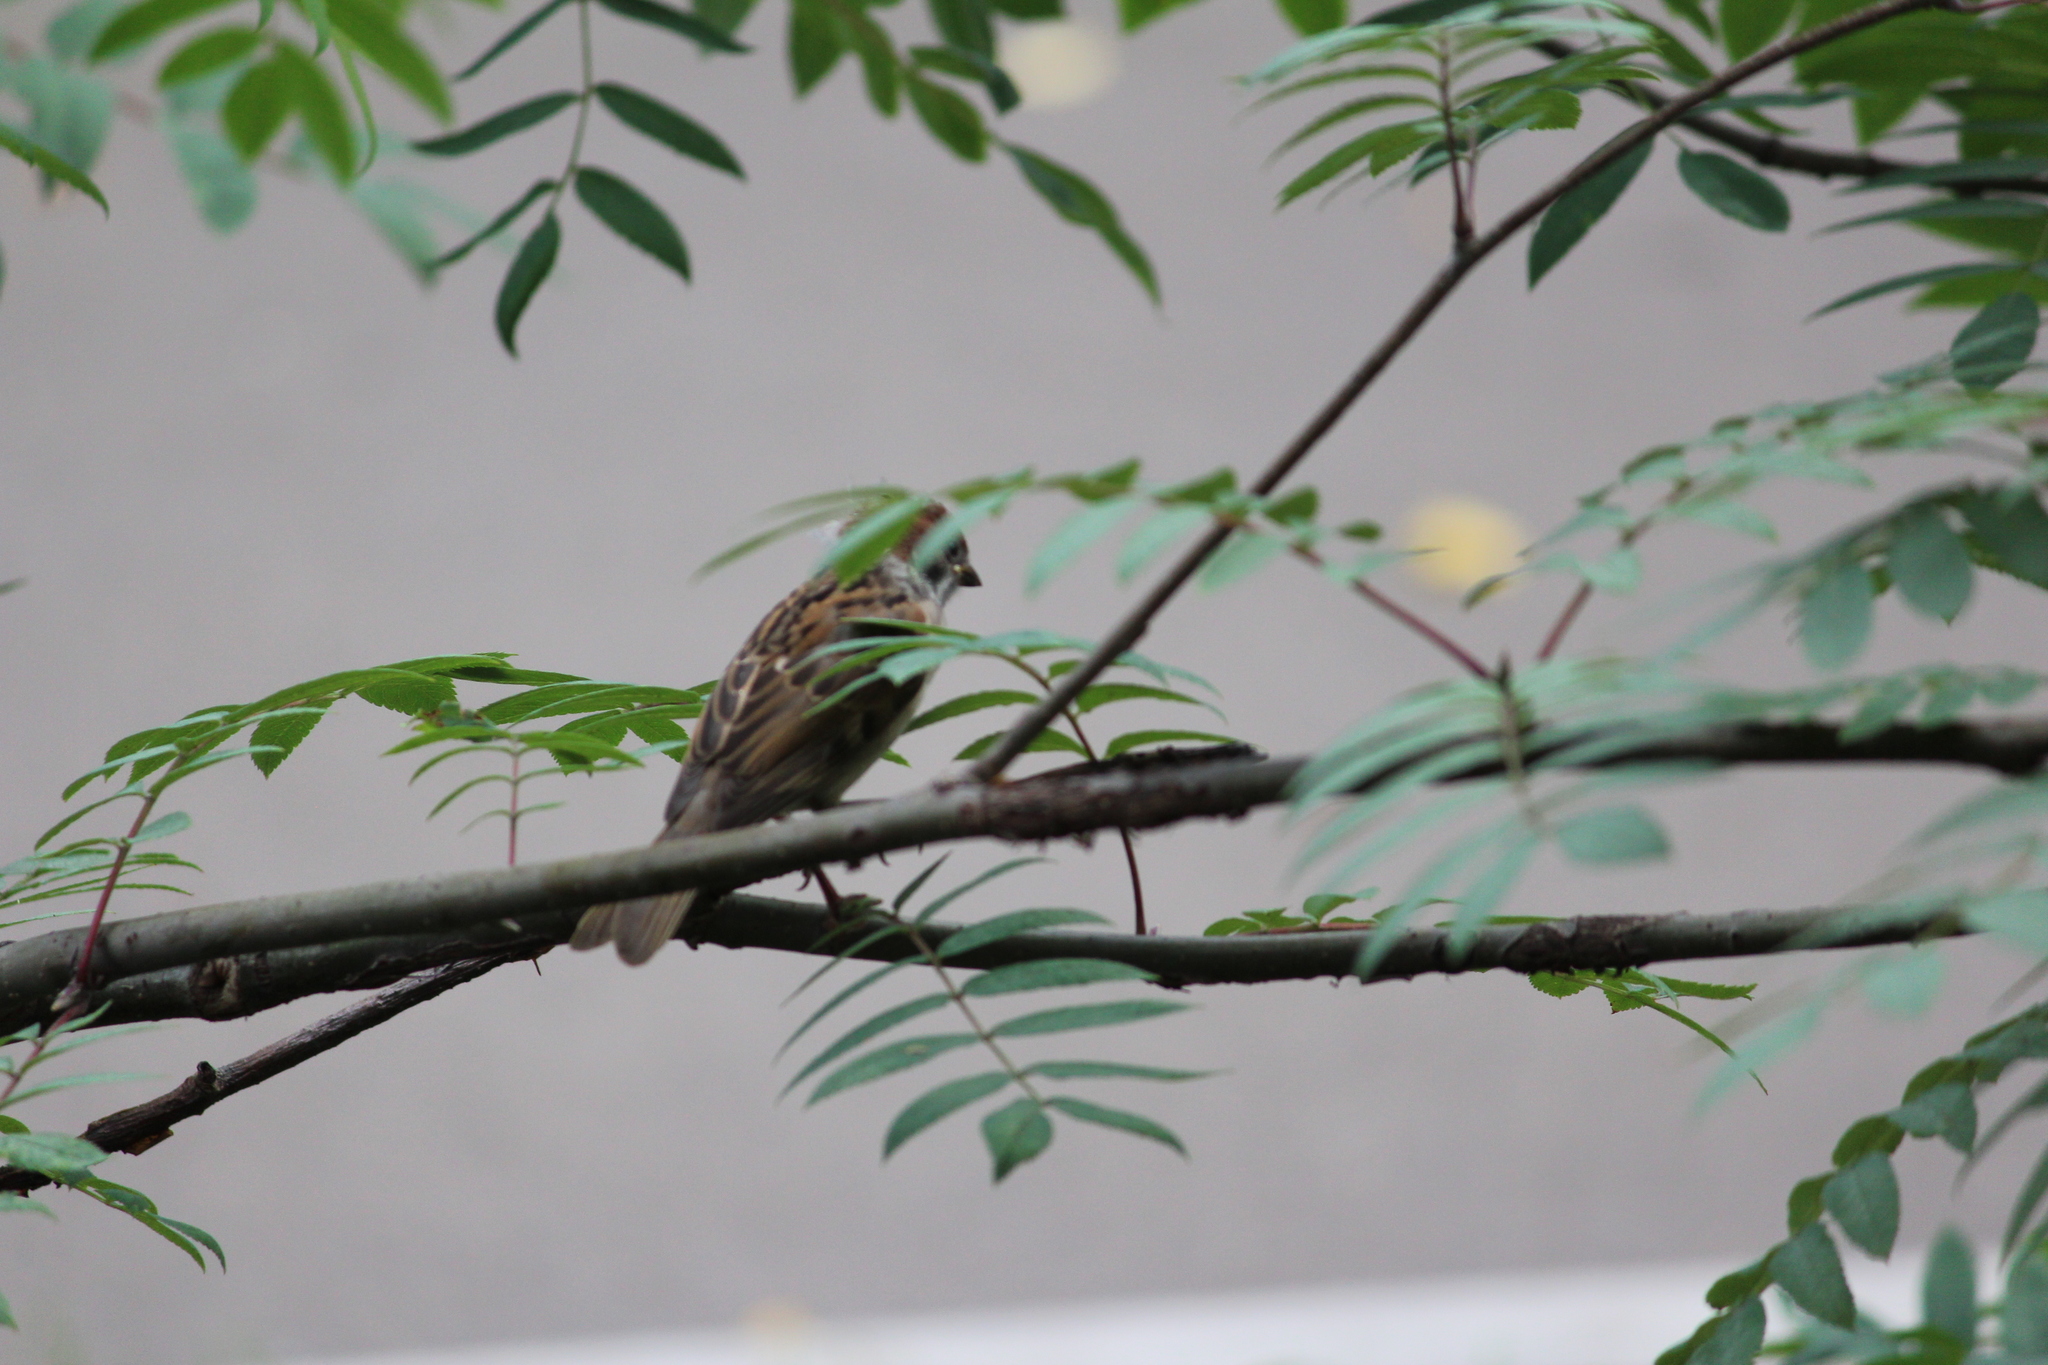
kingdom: Animalia
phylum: Chordata
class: Aves
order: Passeriformes
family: Passeridae
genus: Passer
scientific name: Passer montanus
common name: Eurasian tree sparrow
